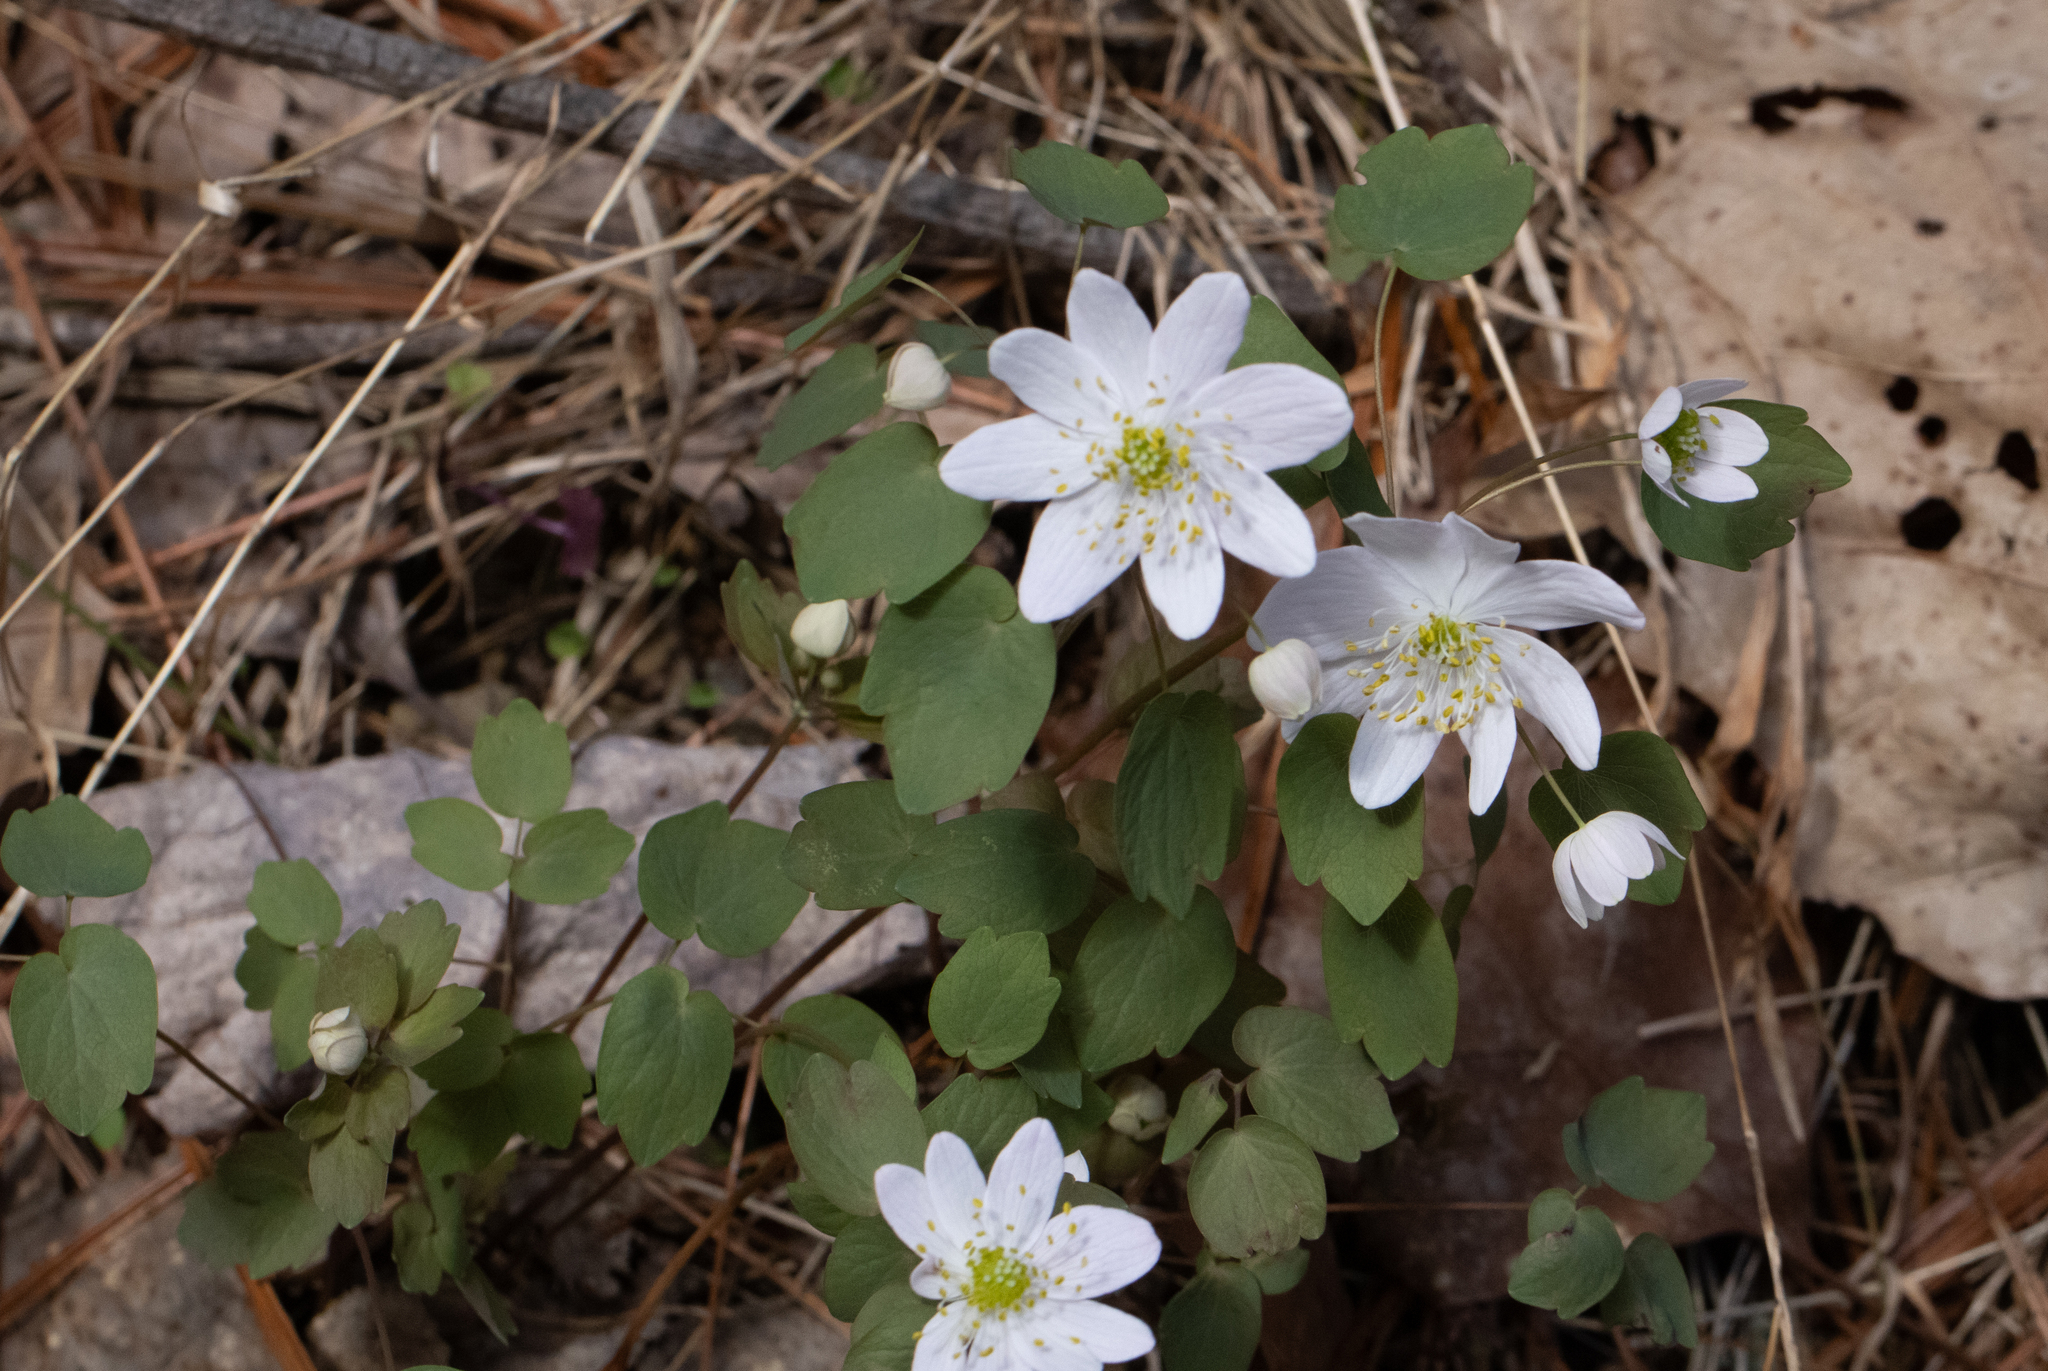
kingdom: Plantae
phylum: Tracheophyta
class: Magnoliopsida
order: Ranunculales
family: Ranunculaceae
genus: Thalictrum
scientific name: Thalictrum thalictroides
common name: Rue-anemone
